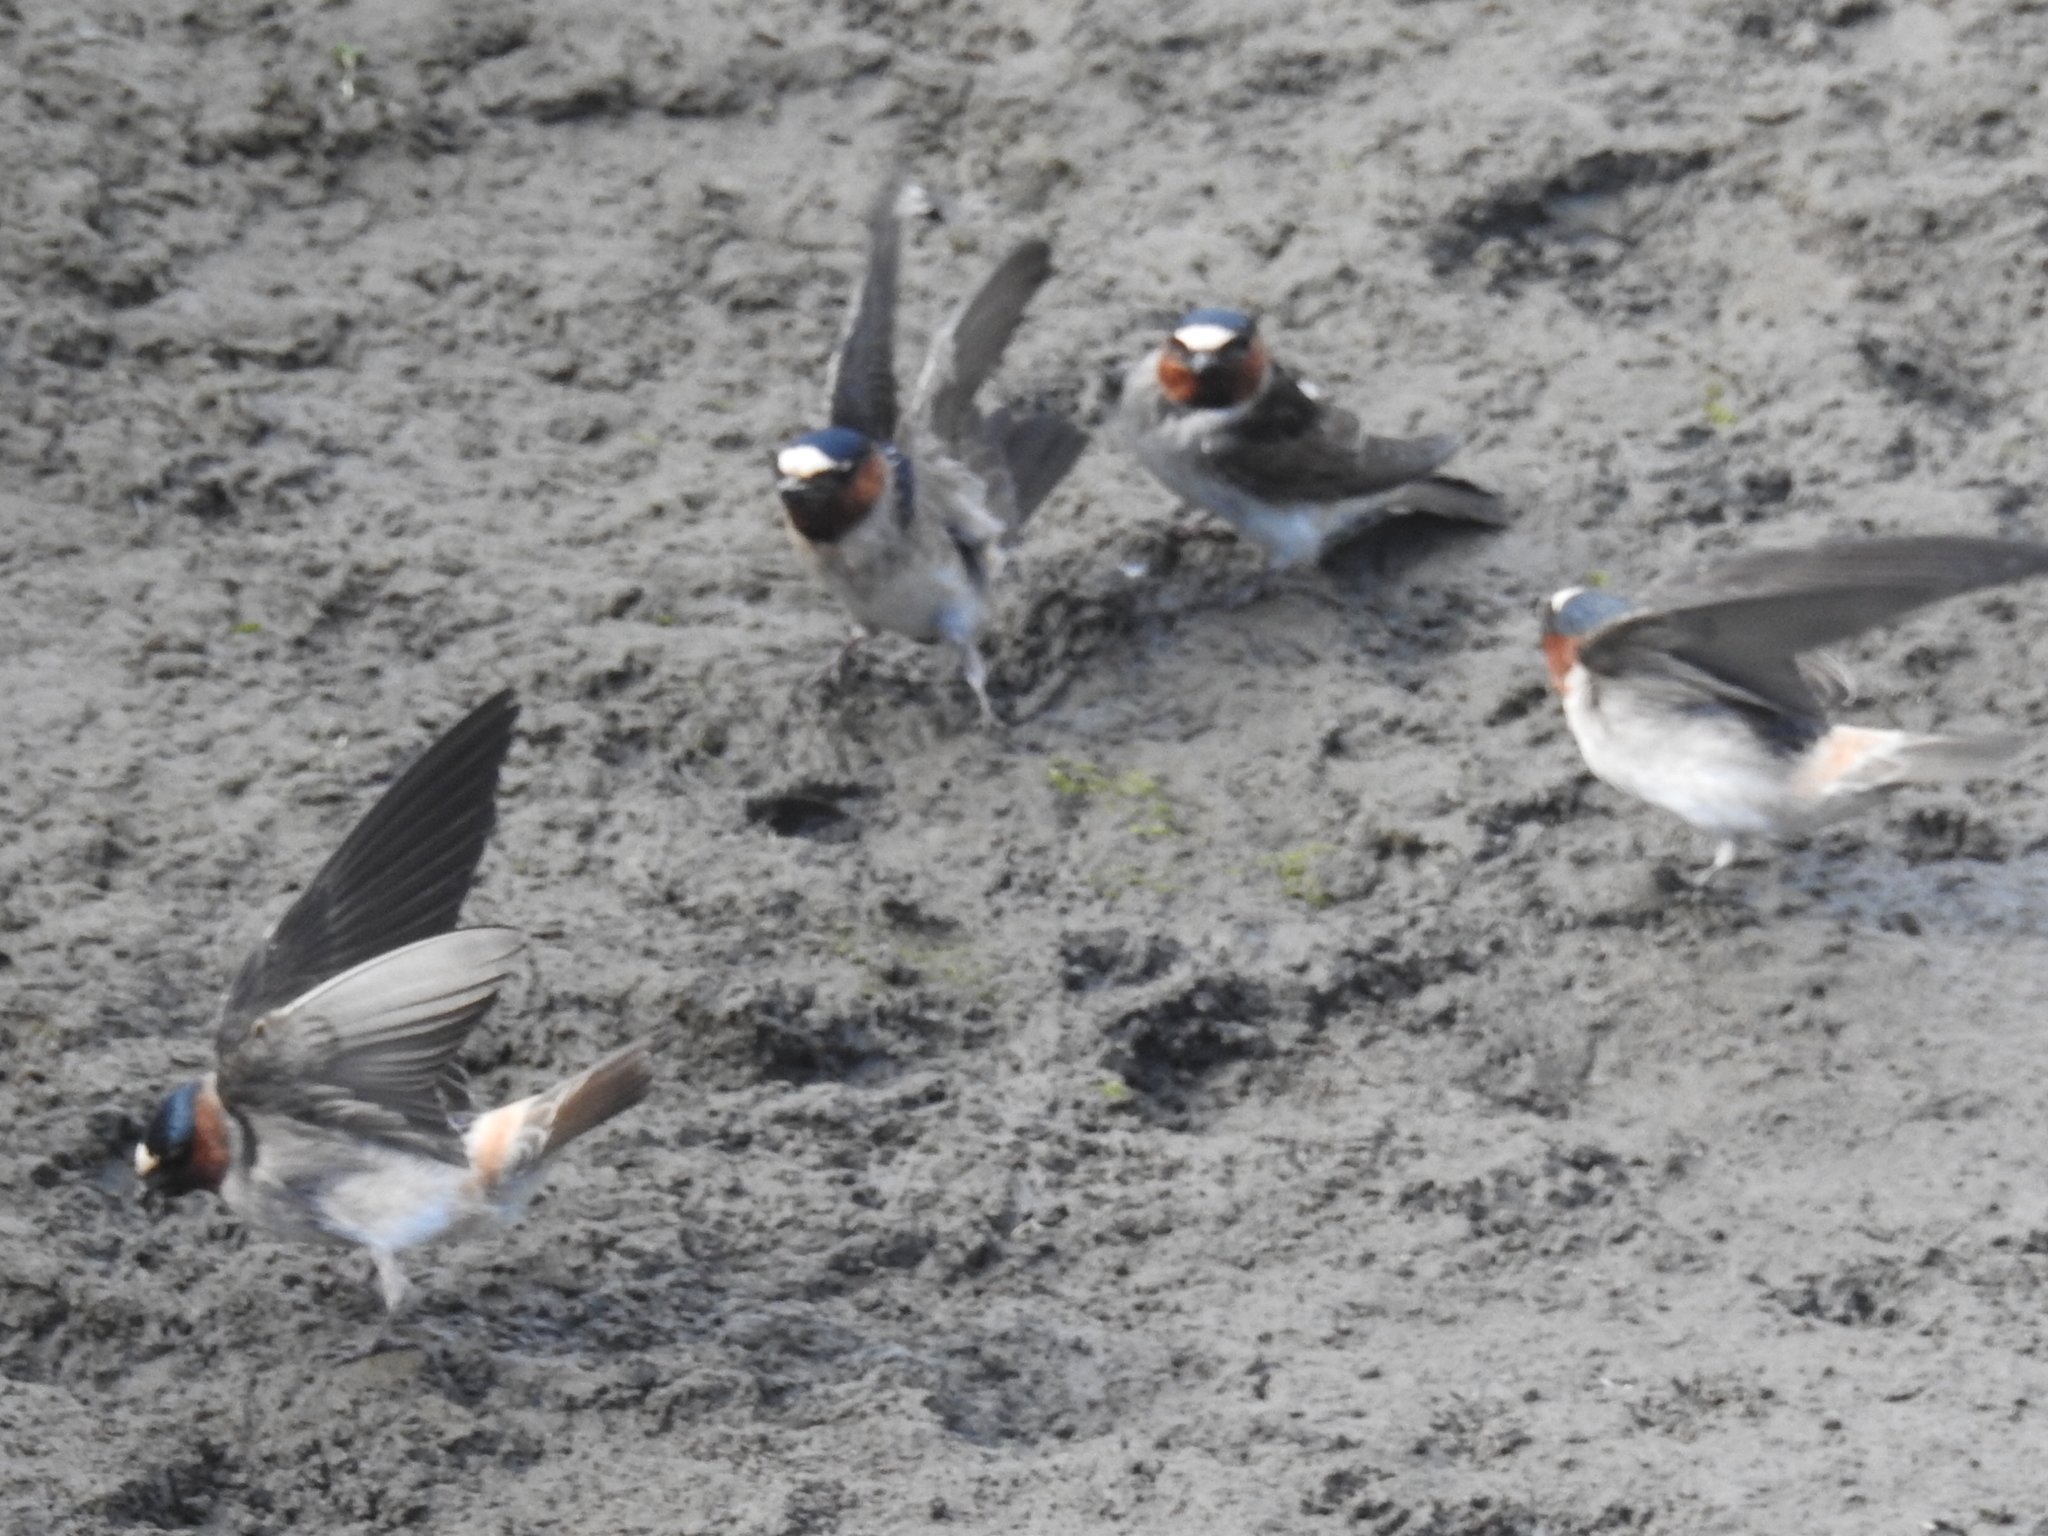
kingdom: Animalia
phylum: Chordata
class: Aves
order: Passeriformes
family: Hirundinidae
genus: Petrochelidon
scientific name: Petrochelidon pyrrhonota
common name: American cliff swallow
